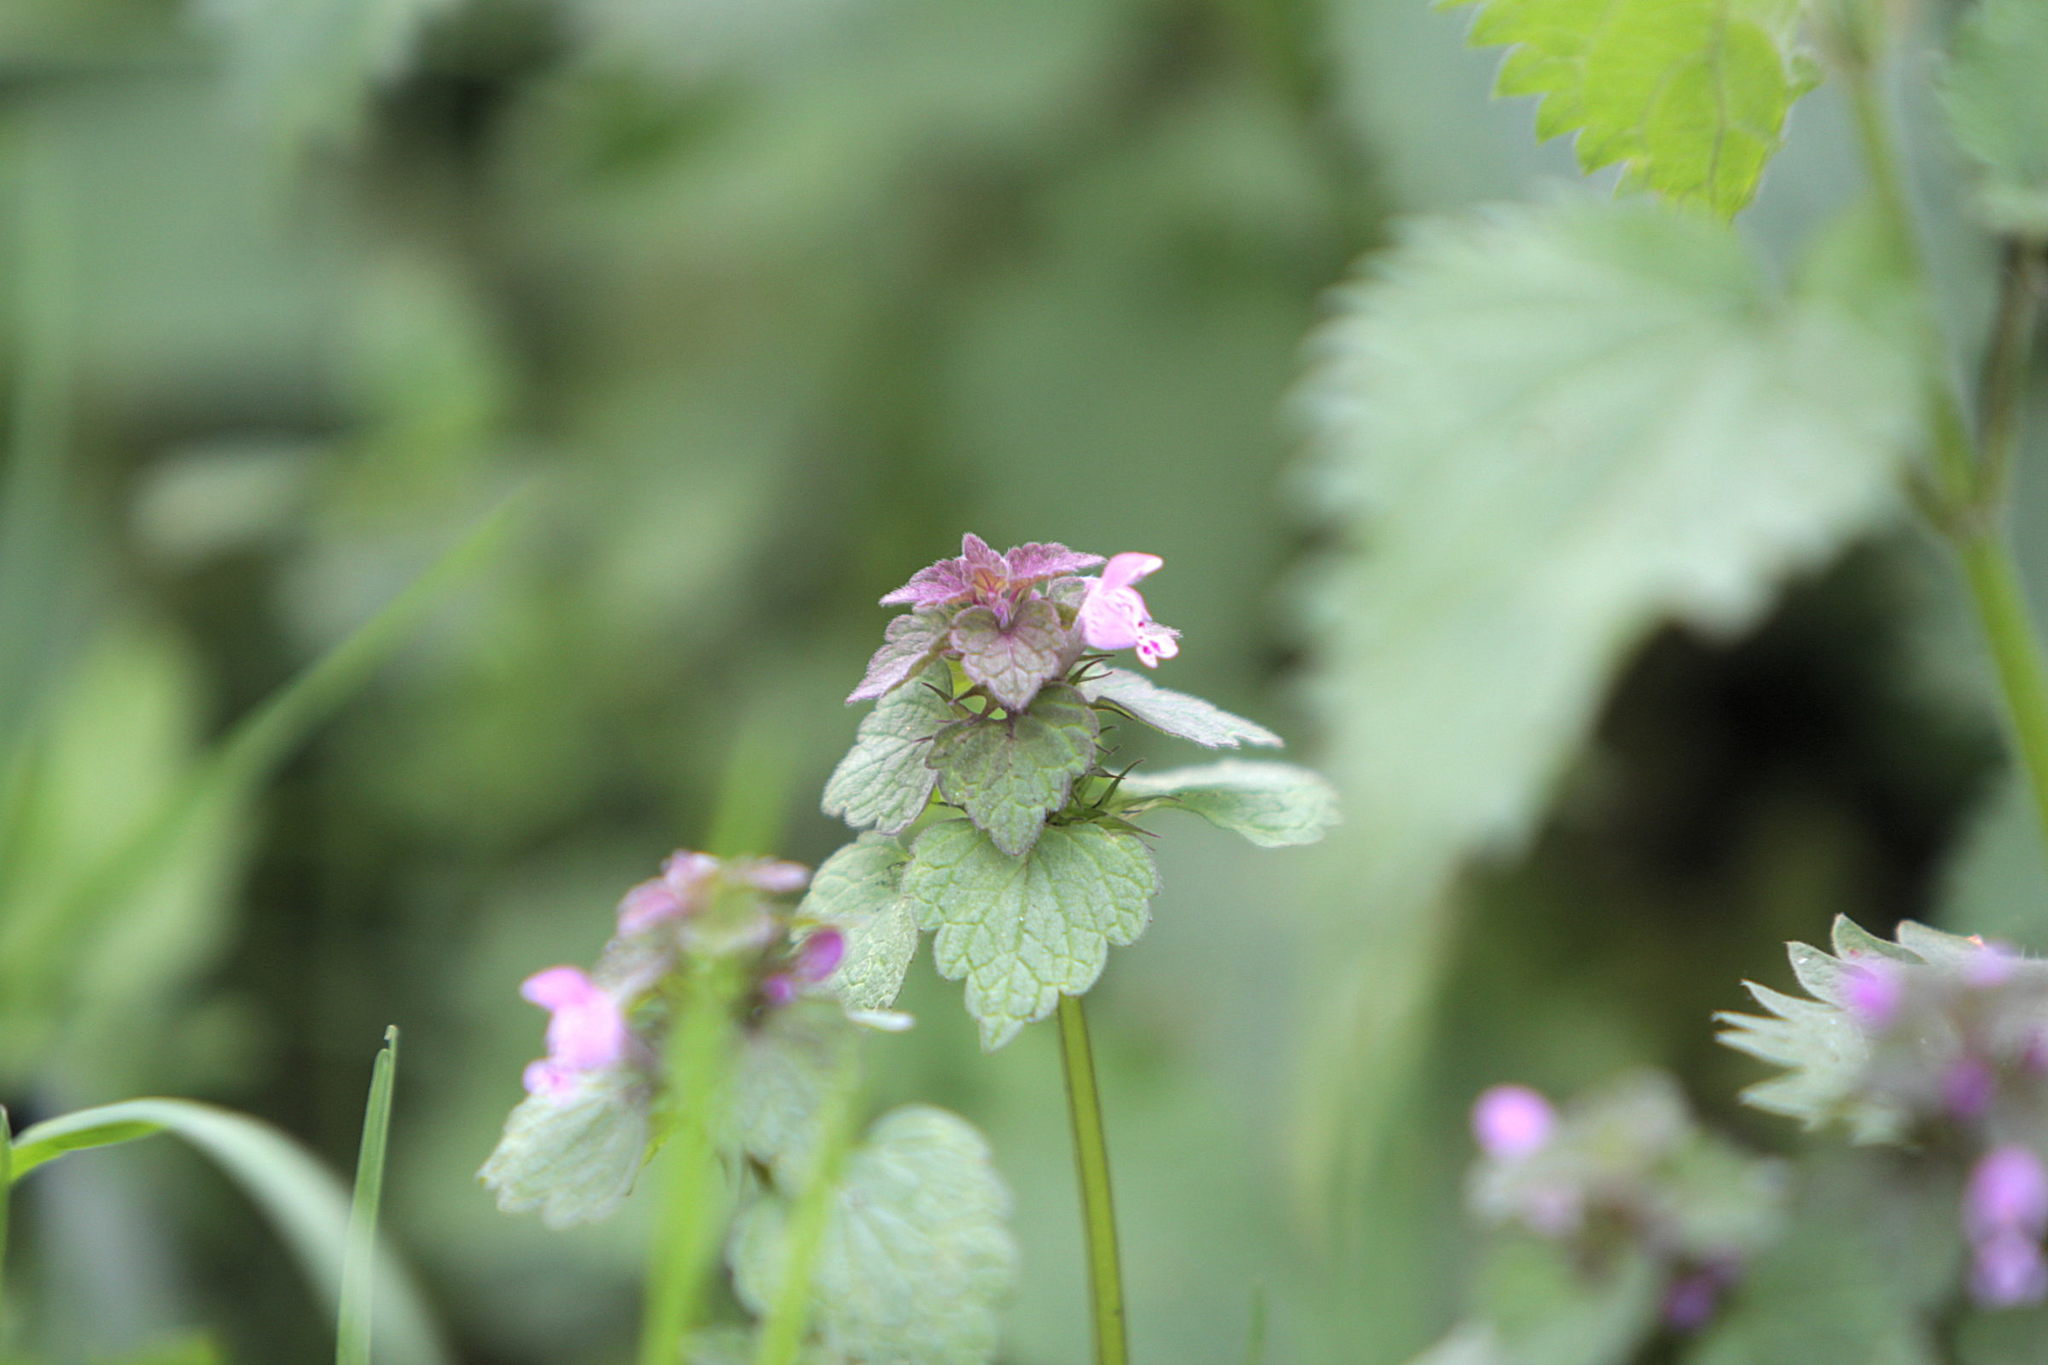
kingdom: Plantae
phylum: Tracheophyta
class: Magnoliopsida
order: Lamiales
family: Lamiaceae
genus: Lamium
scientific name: Lamium purpureum
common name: Red dead-nettle
